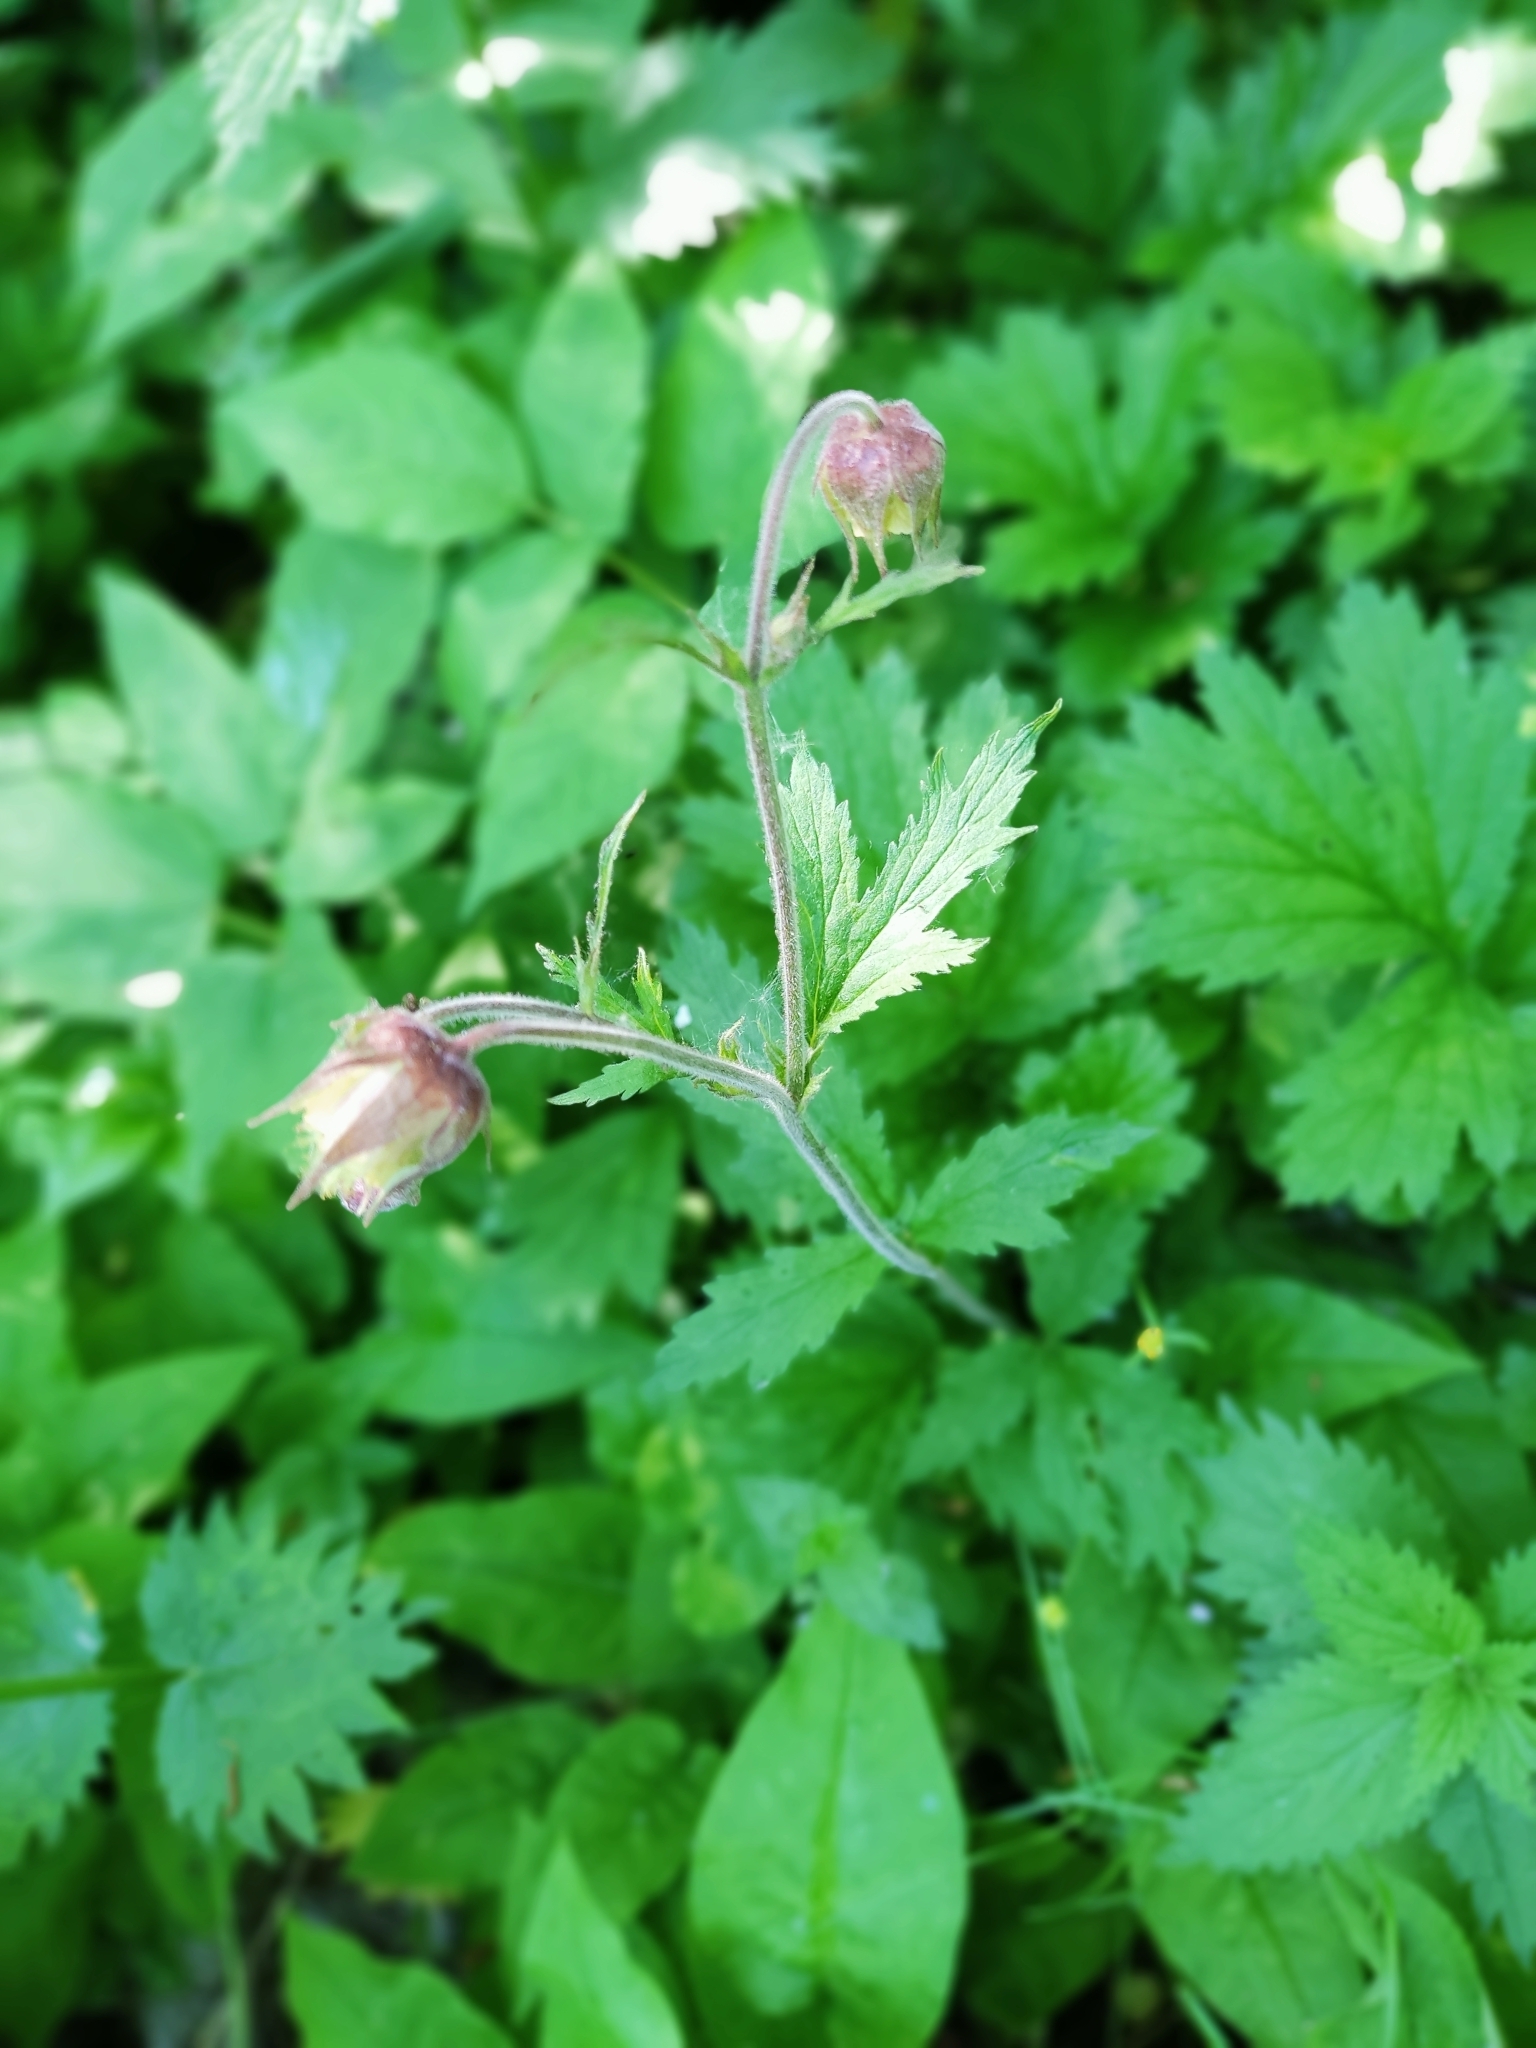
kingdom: Plantae
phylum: Tracheophyta
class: Magnoliopsida
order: Rosales
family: Rosaceae
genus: Geum
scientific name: Geum rivale
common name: Water avens
